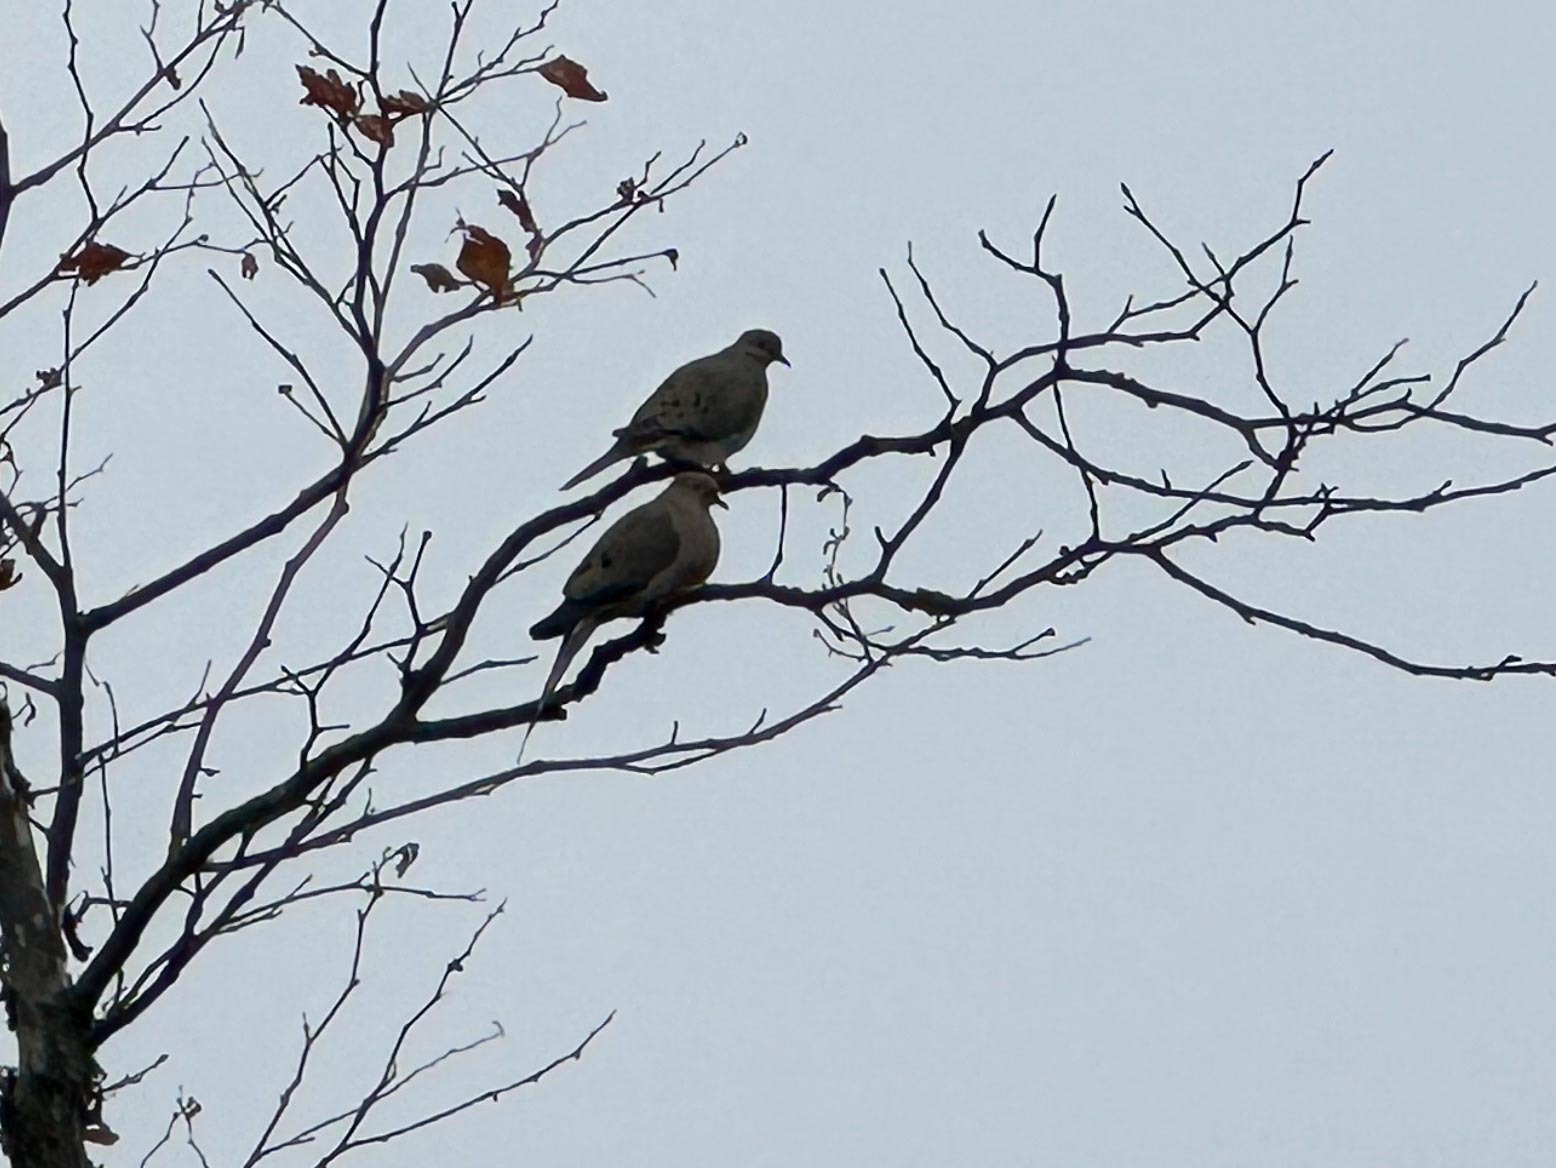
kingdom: Animalia
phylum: Chordata
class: Aves
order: Columbiformes
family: Columbidae
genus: Zenaida
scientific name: Zenaida macroura
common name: Mourning dove
